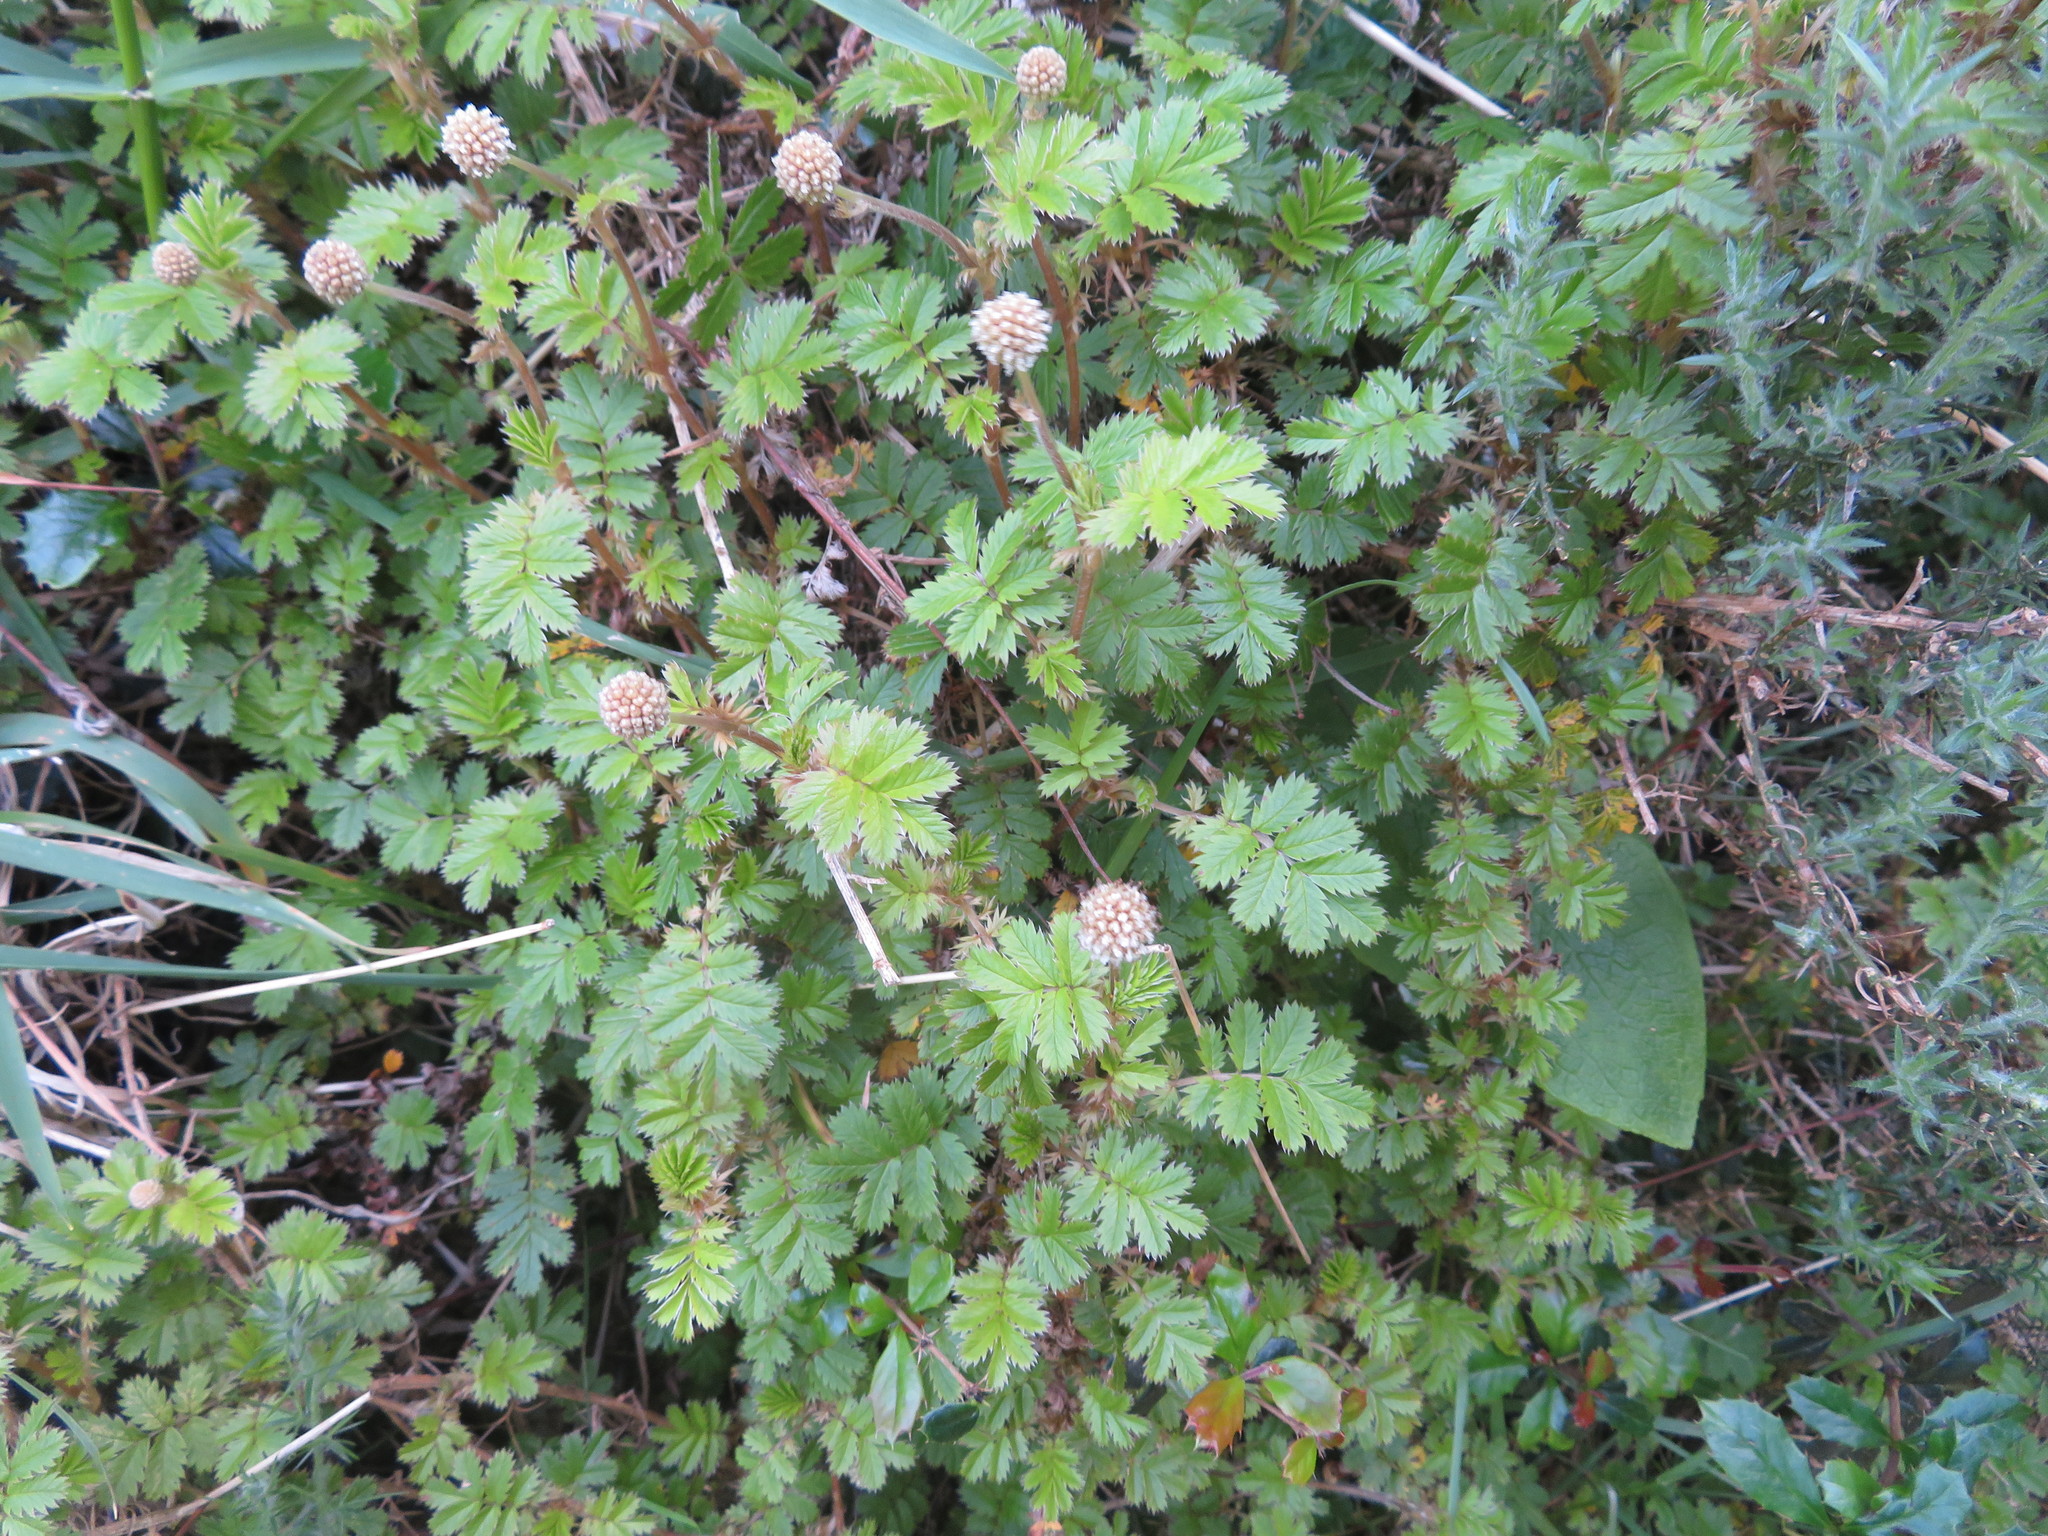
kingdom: Plantae
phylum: Tracheophyta
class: Magnoliopsida
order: Rosales
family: Rosaceae
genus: Acaena
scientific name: Acaena anserinifolia
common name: Bronze pirri-pirri-bur
